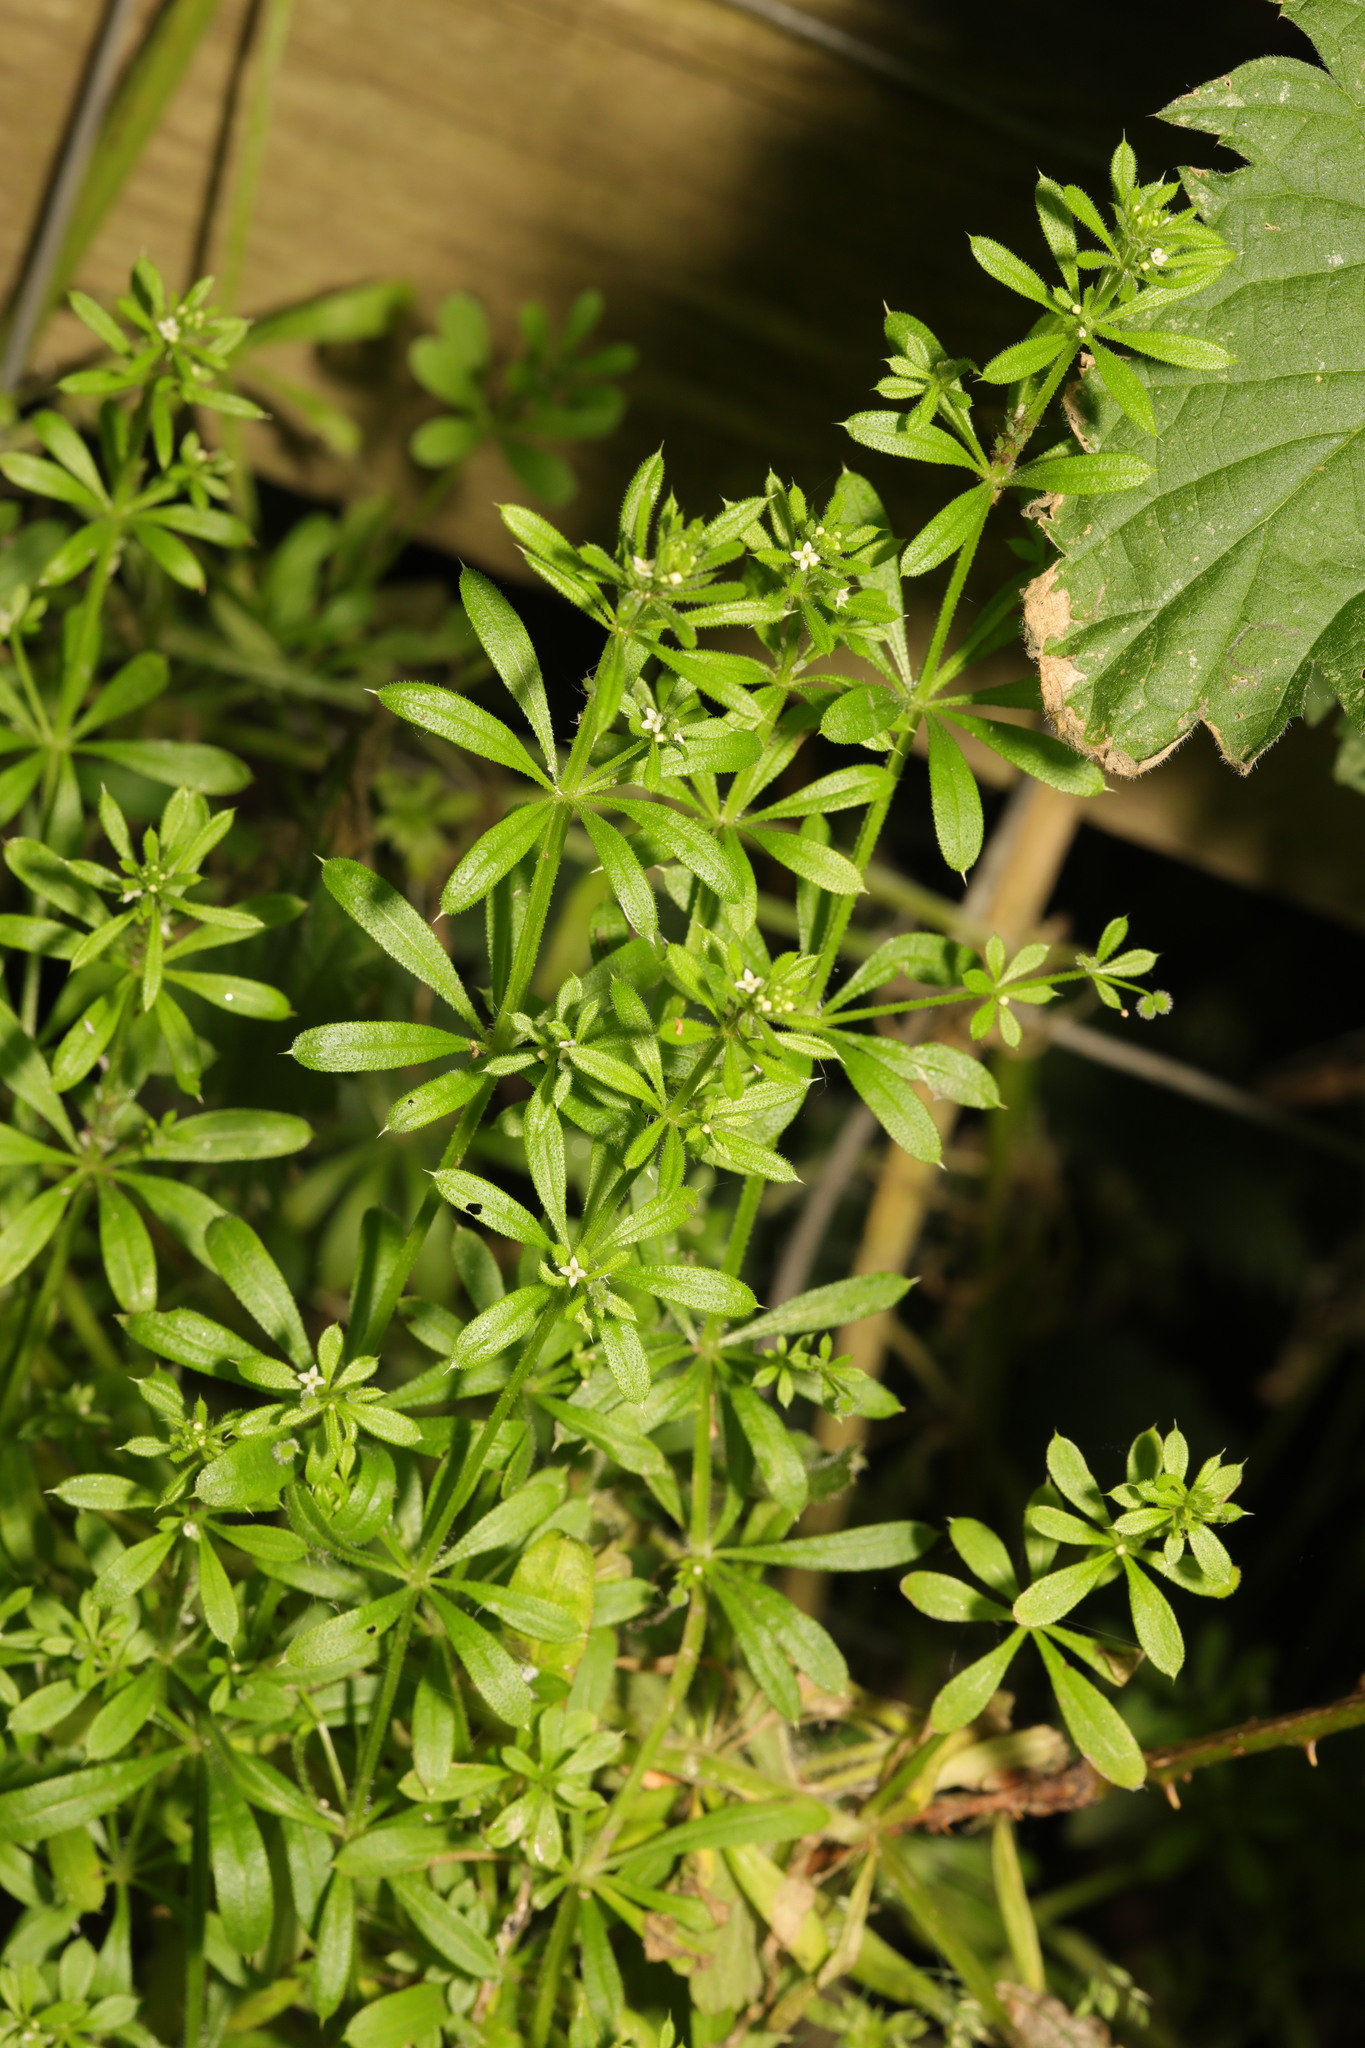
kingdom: Plantae
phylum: Tracheophyta
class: Magnoliopsida
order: Gentianales
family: Rubiaceae
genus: Galium
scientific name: Galium aparine
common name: Cleavers
